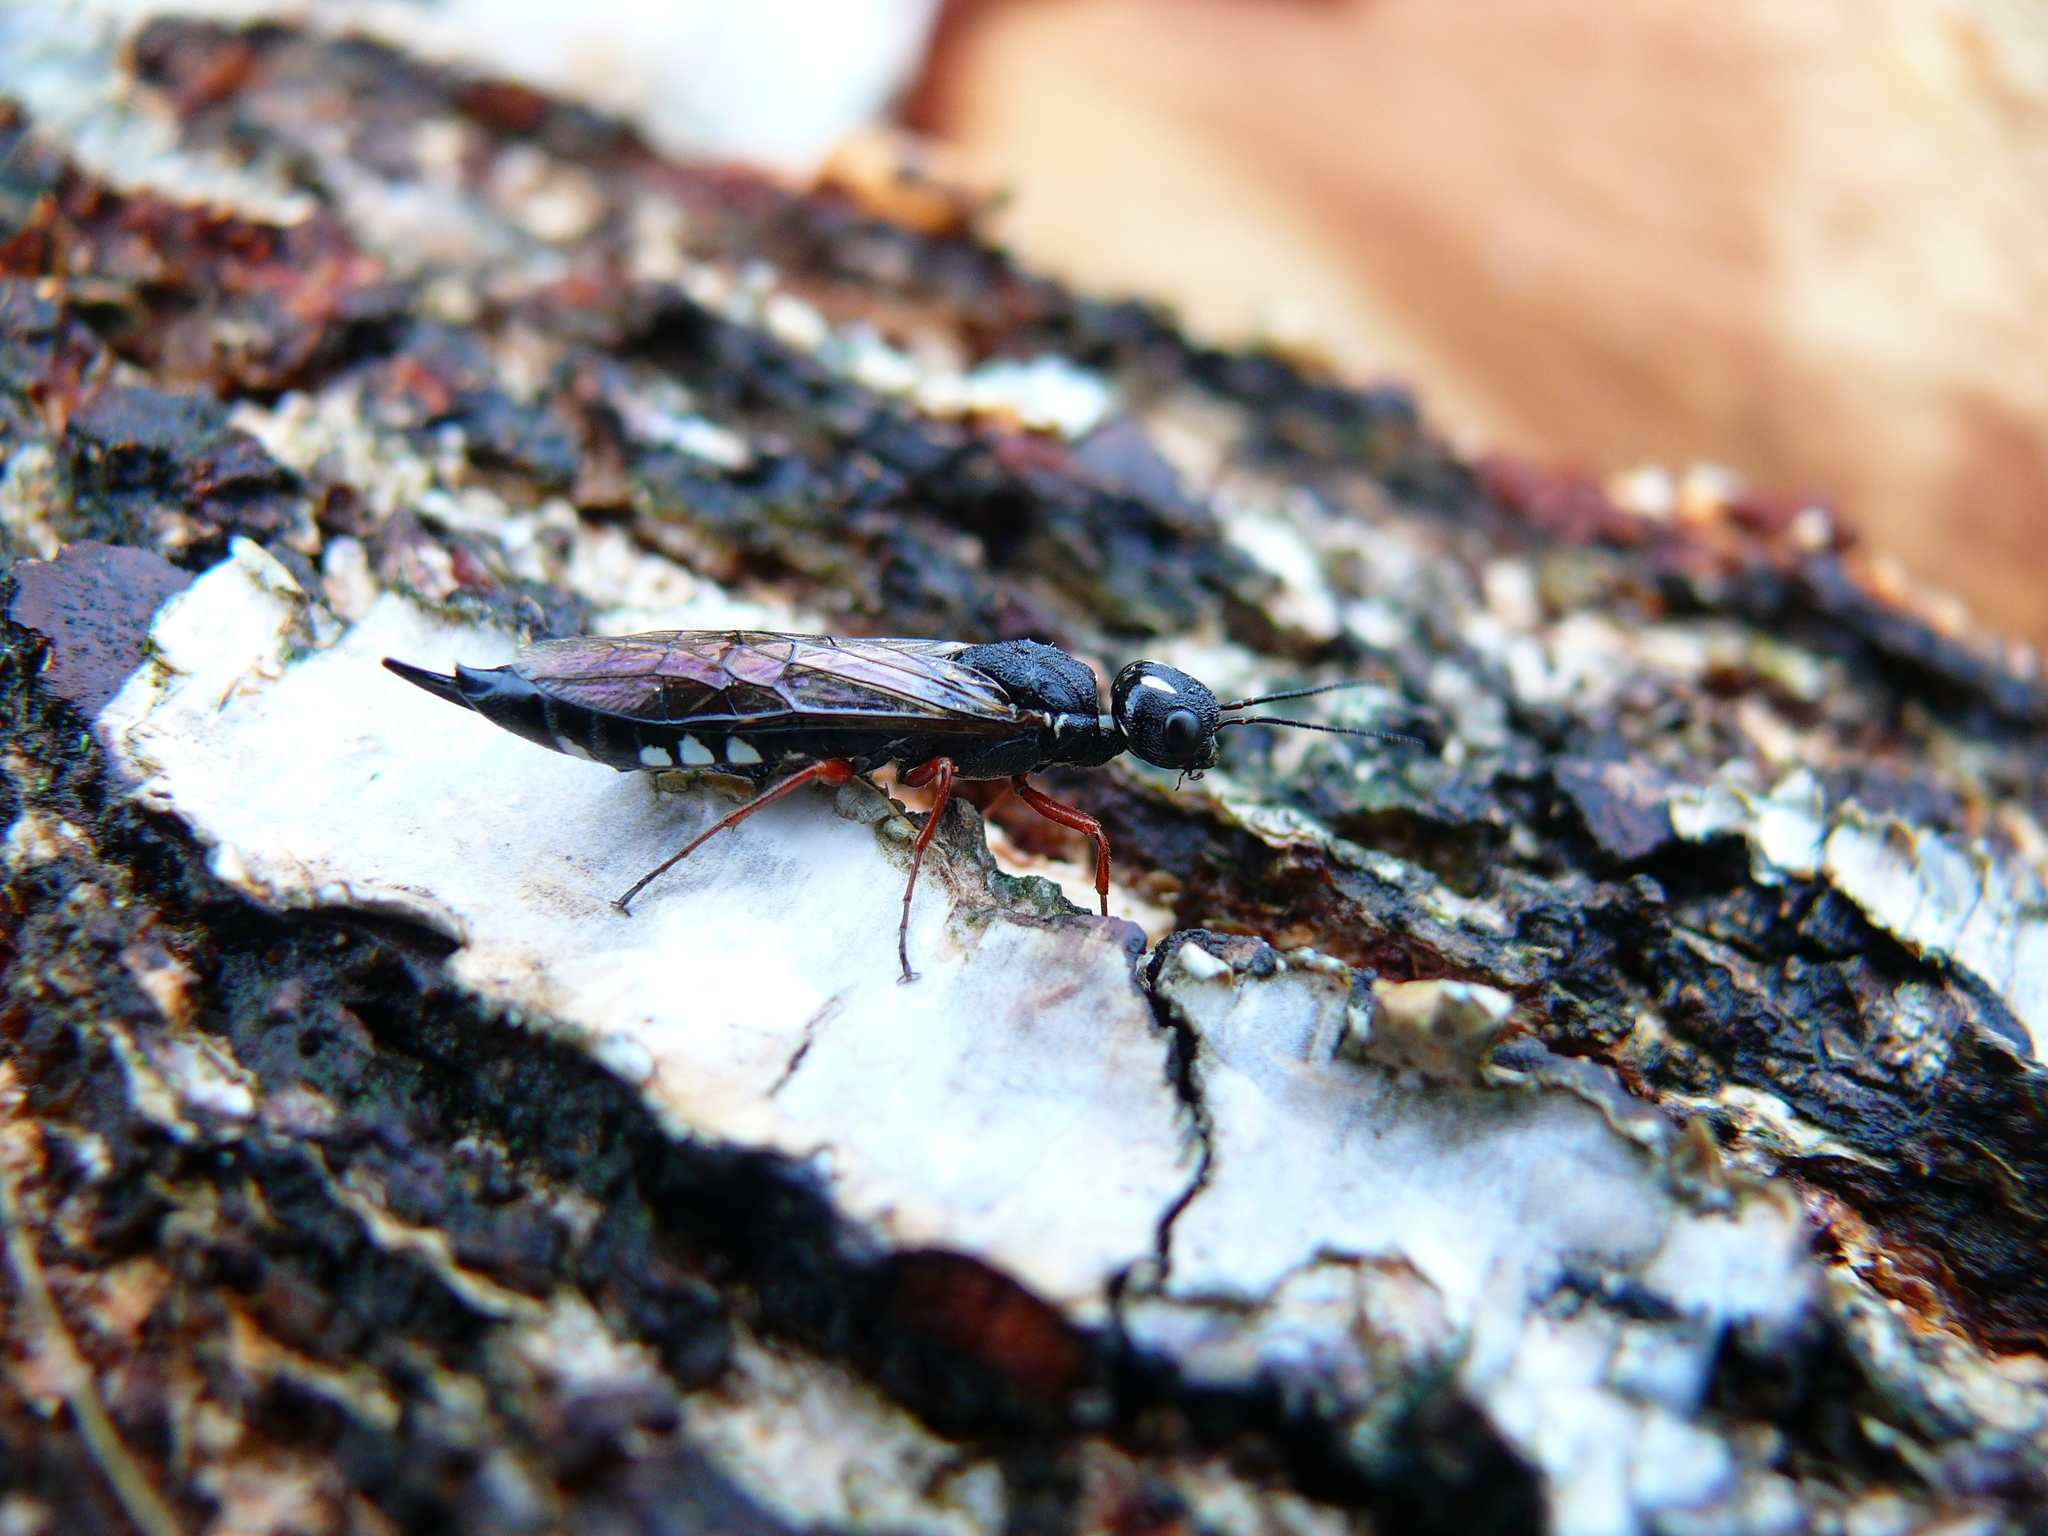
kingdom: Animalia
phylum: Arthropoda
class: Insecta
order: Hymenoptera
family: Xiphydriidae
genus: Xiphydria
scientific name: Xiphydria camelus
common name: Alder wood-wasp
